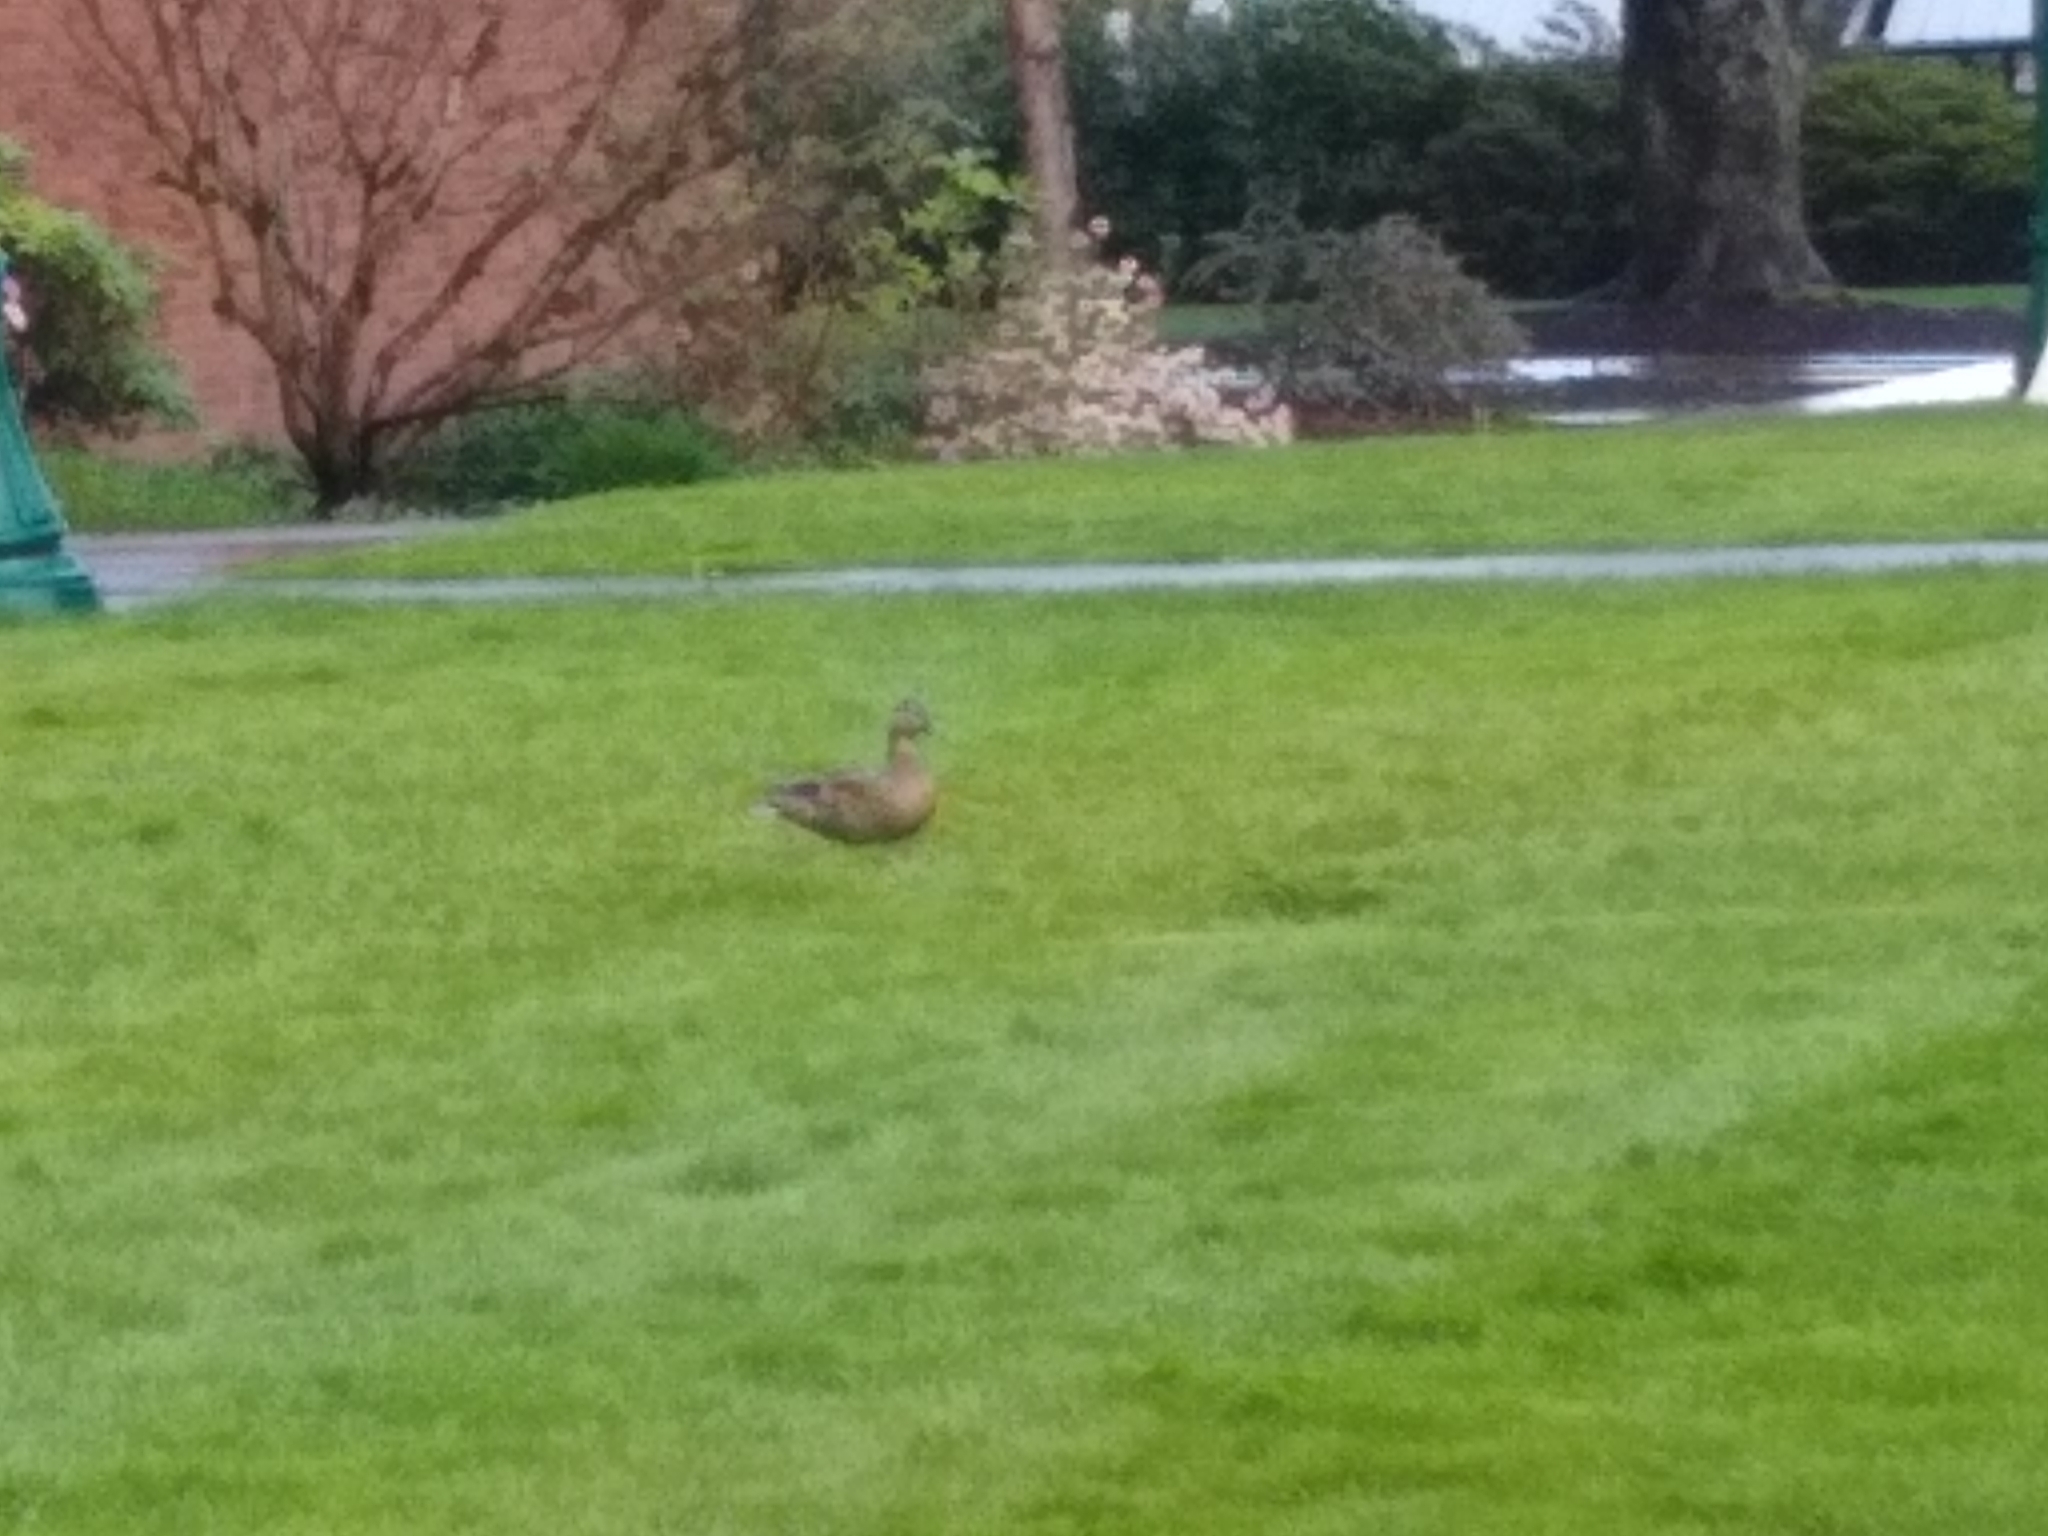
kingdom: Animalia
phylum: Chordata
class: Aves
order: Anseriformes
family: Anatidae
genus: Anas
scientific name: Anas platyrhynchos
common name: Mallard
